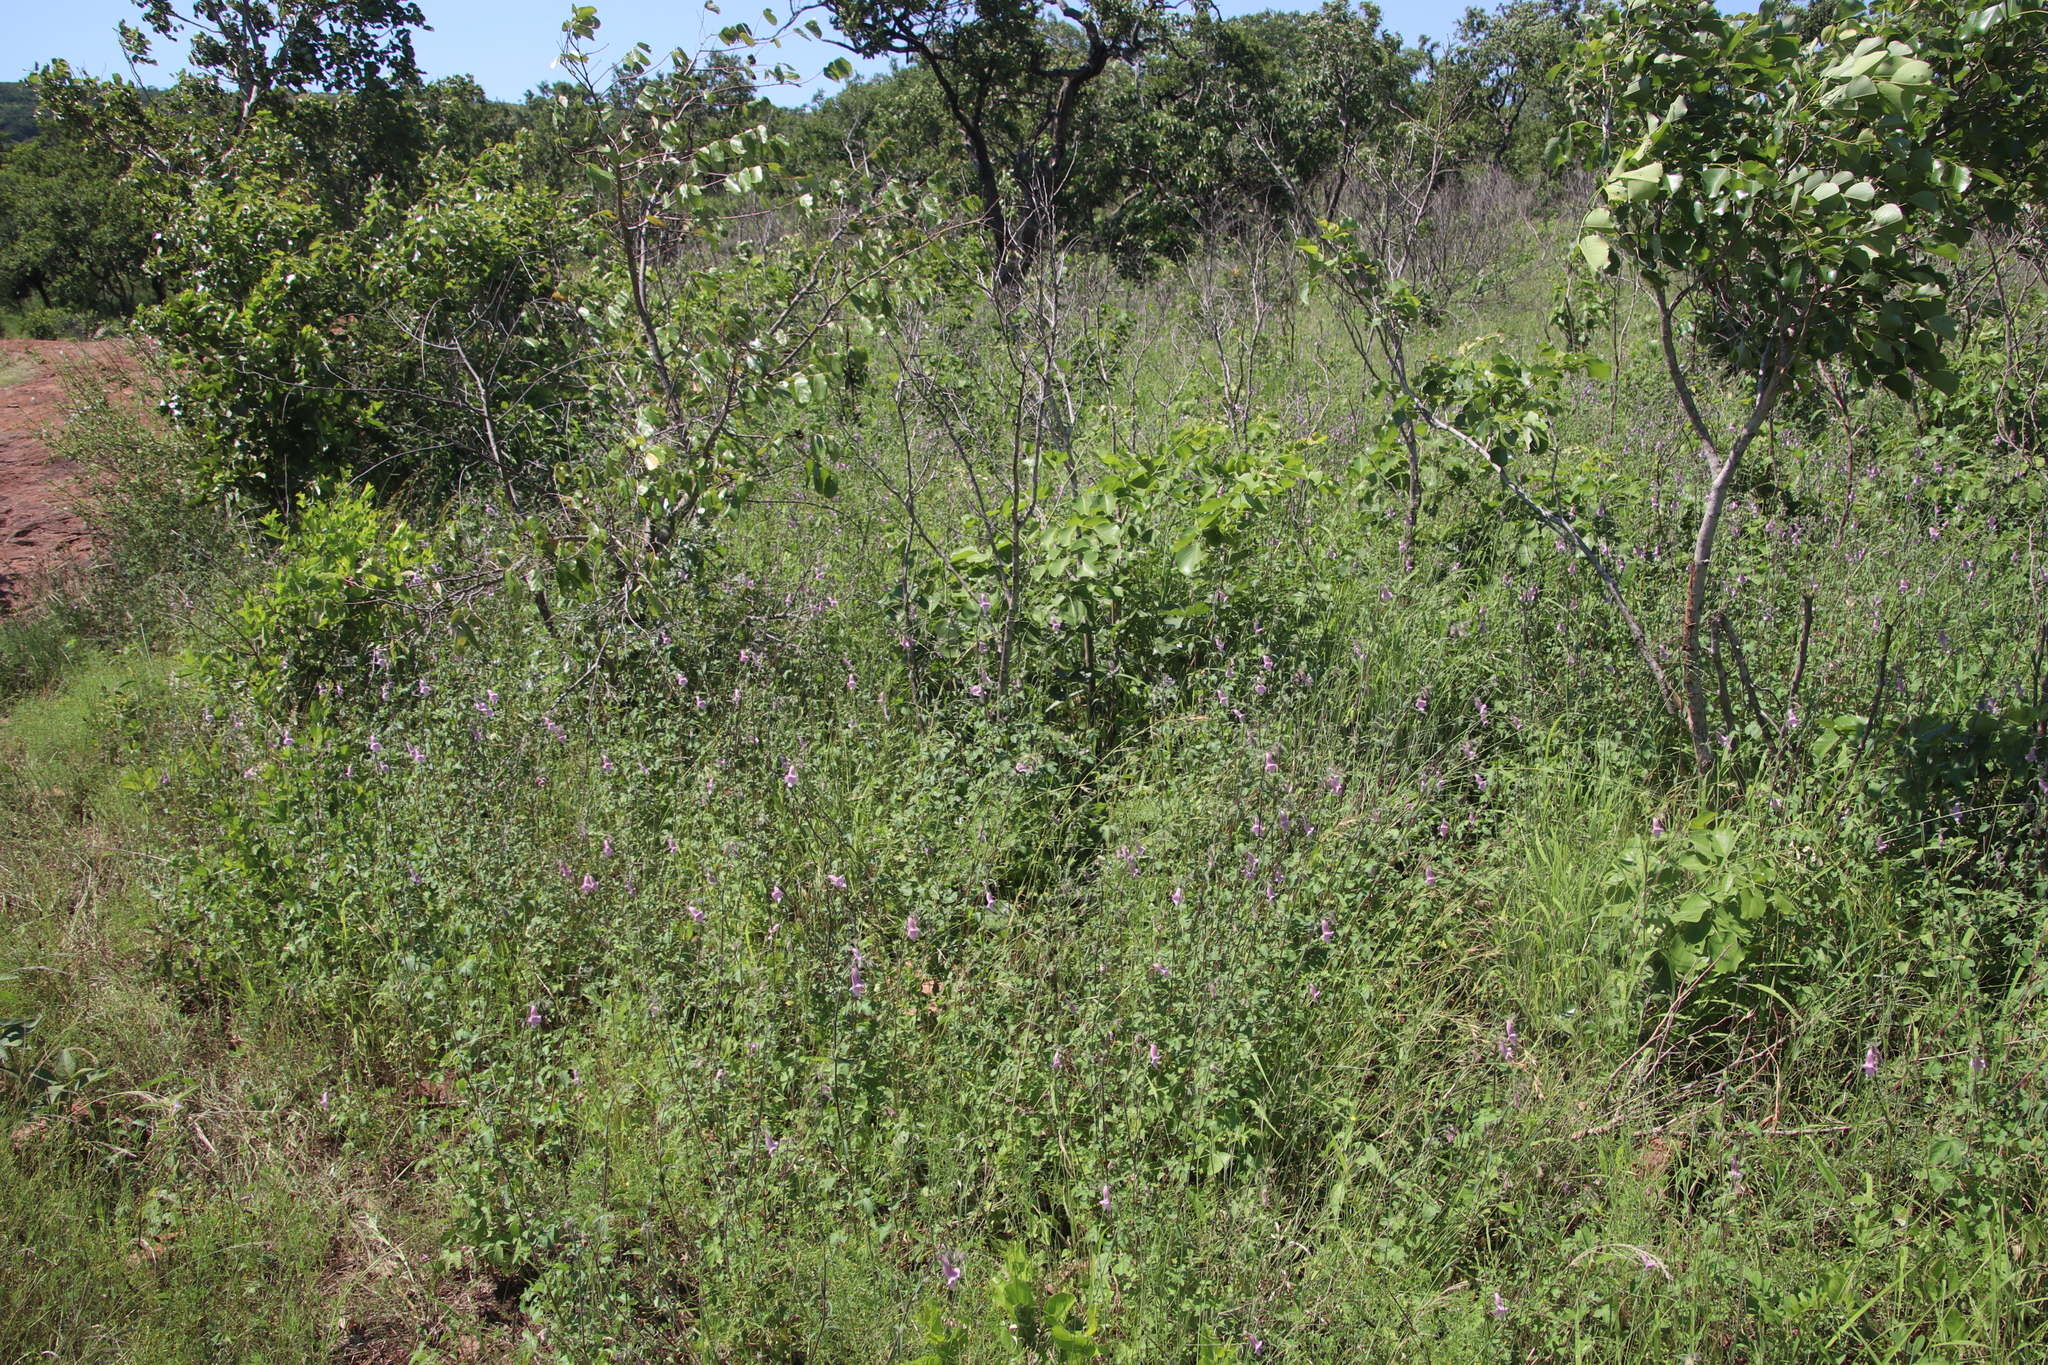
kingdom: Plantae
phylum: Tracheophyta
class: Magnoliopsida
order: Lamiales
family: Pedaliaceae
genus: Sesamum
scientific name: Sesamum trilobum
